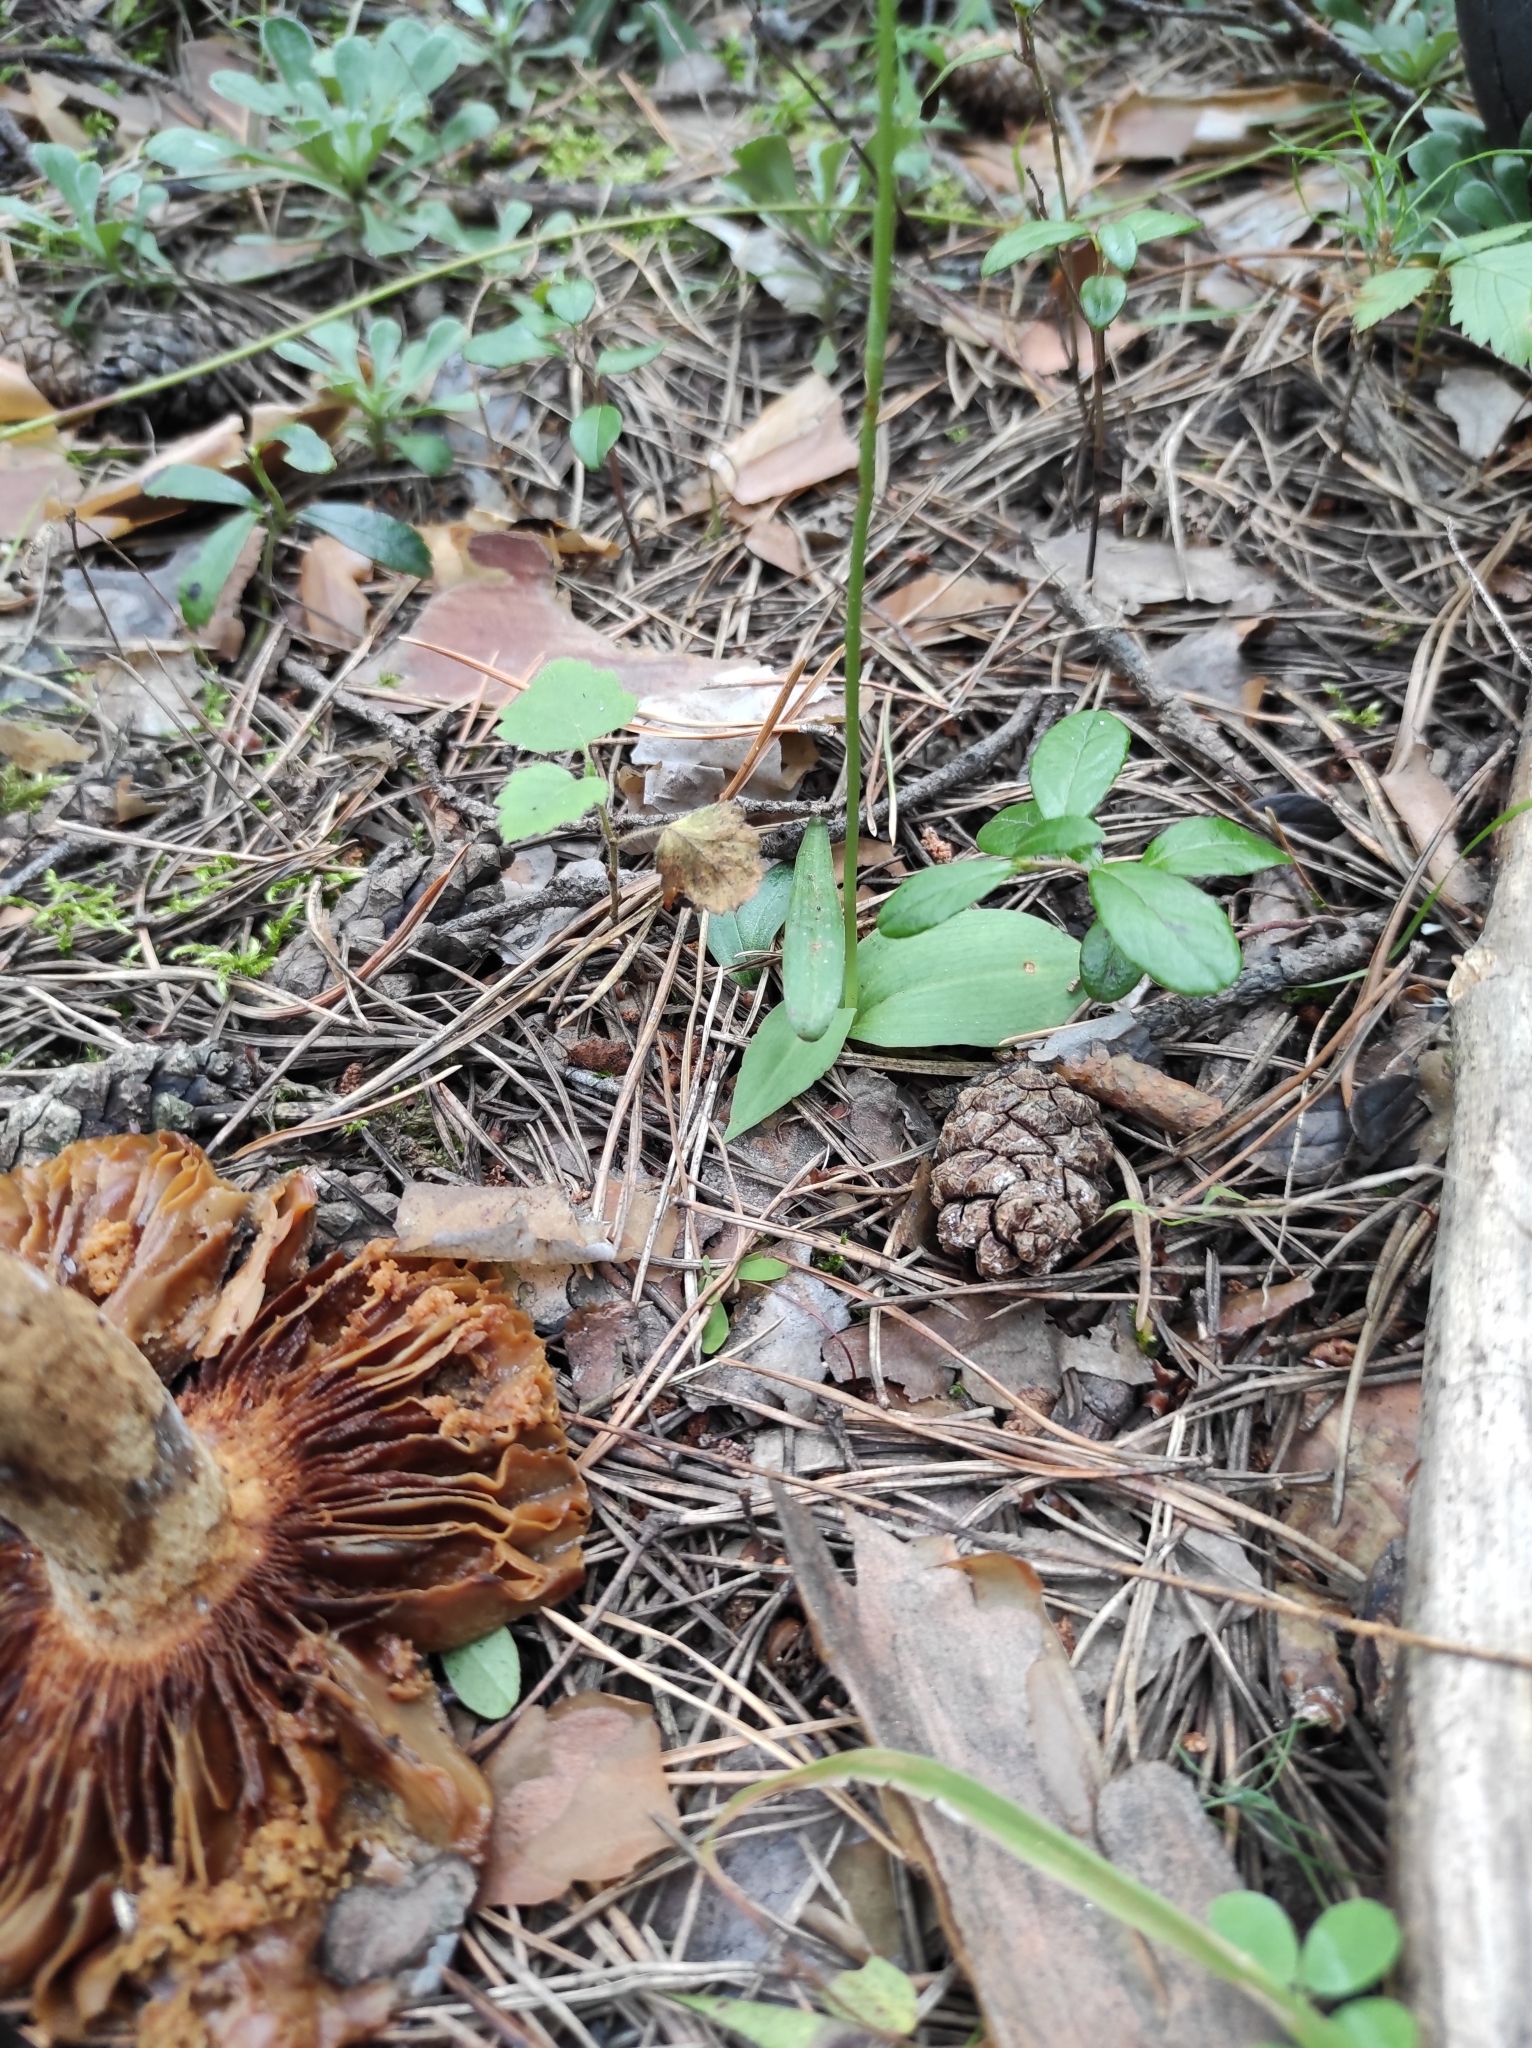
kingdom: Plantae
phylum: Tracheophyta
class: Liliopsida
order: Asparagales
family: Orchidaceae
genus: Hemipilia
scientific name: Hemipilia cucullata
